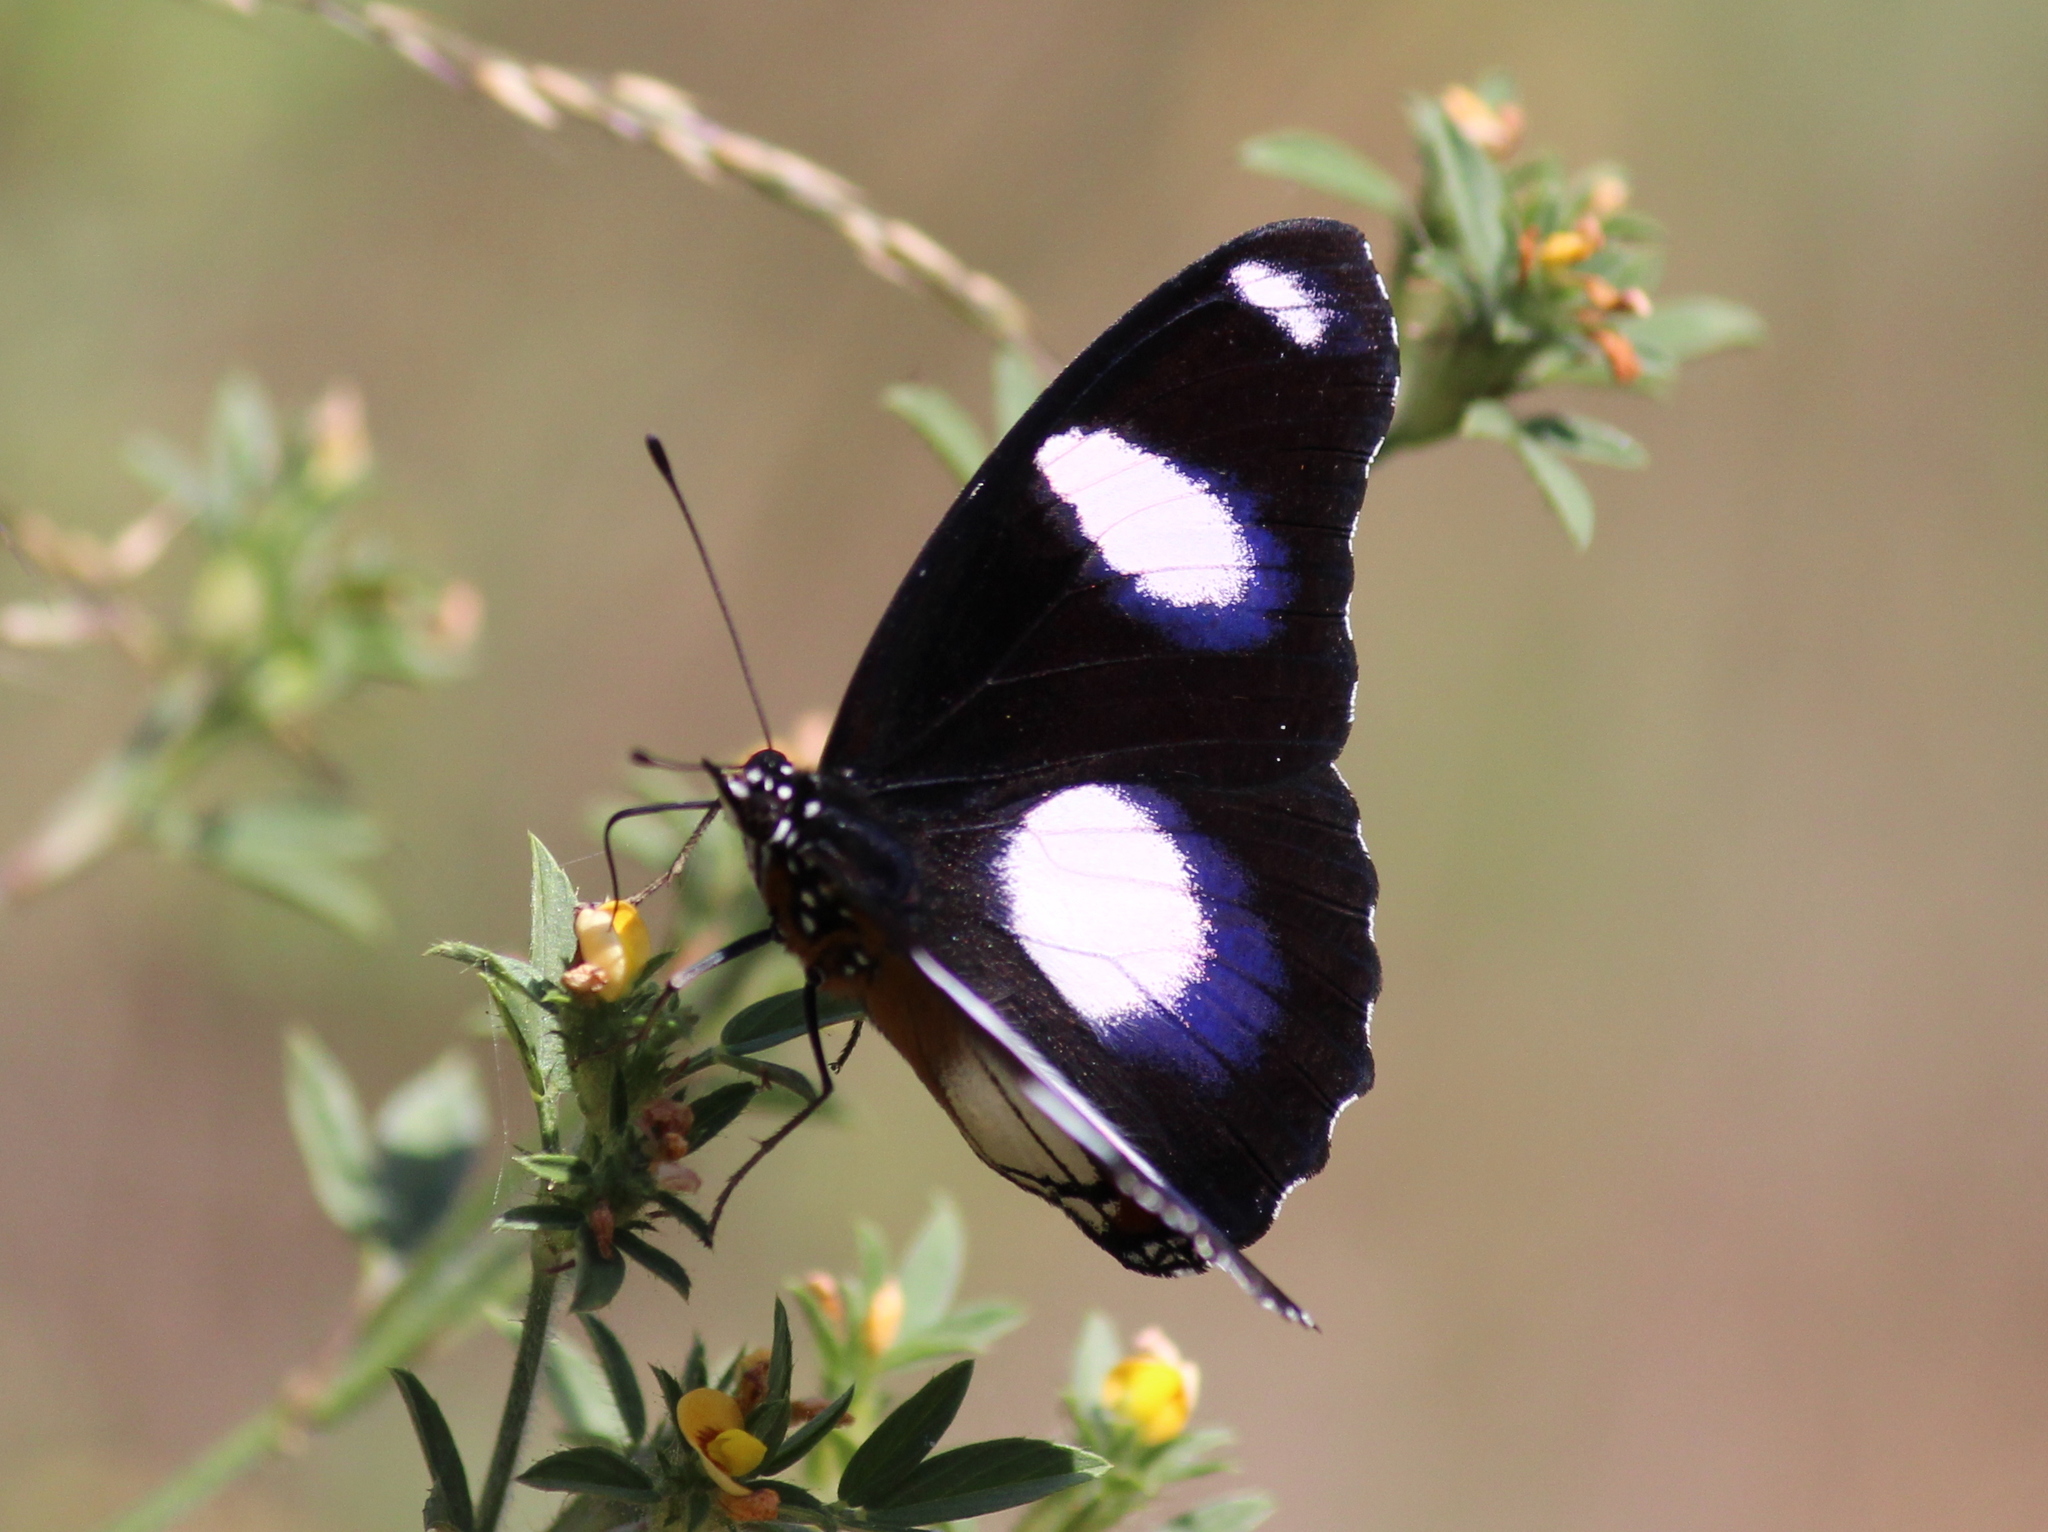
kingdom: Animalia
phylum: Arthropoda
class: Insecta
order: Lepidoptera
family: Nymphalidae
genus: Hypolimnas
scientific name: Hypolimnas misippus
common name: False plain tiger
